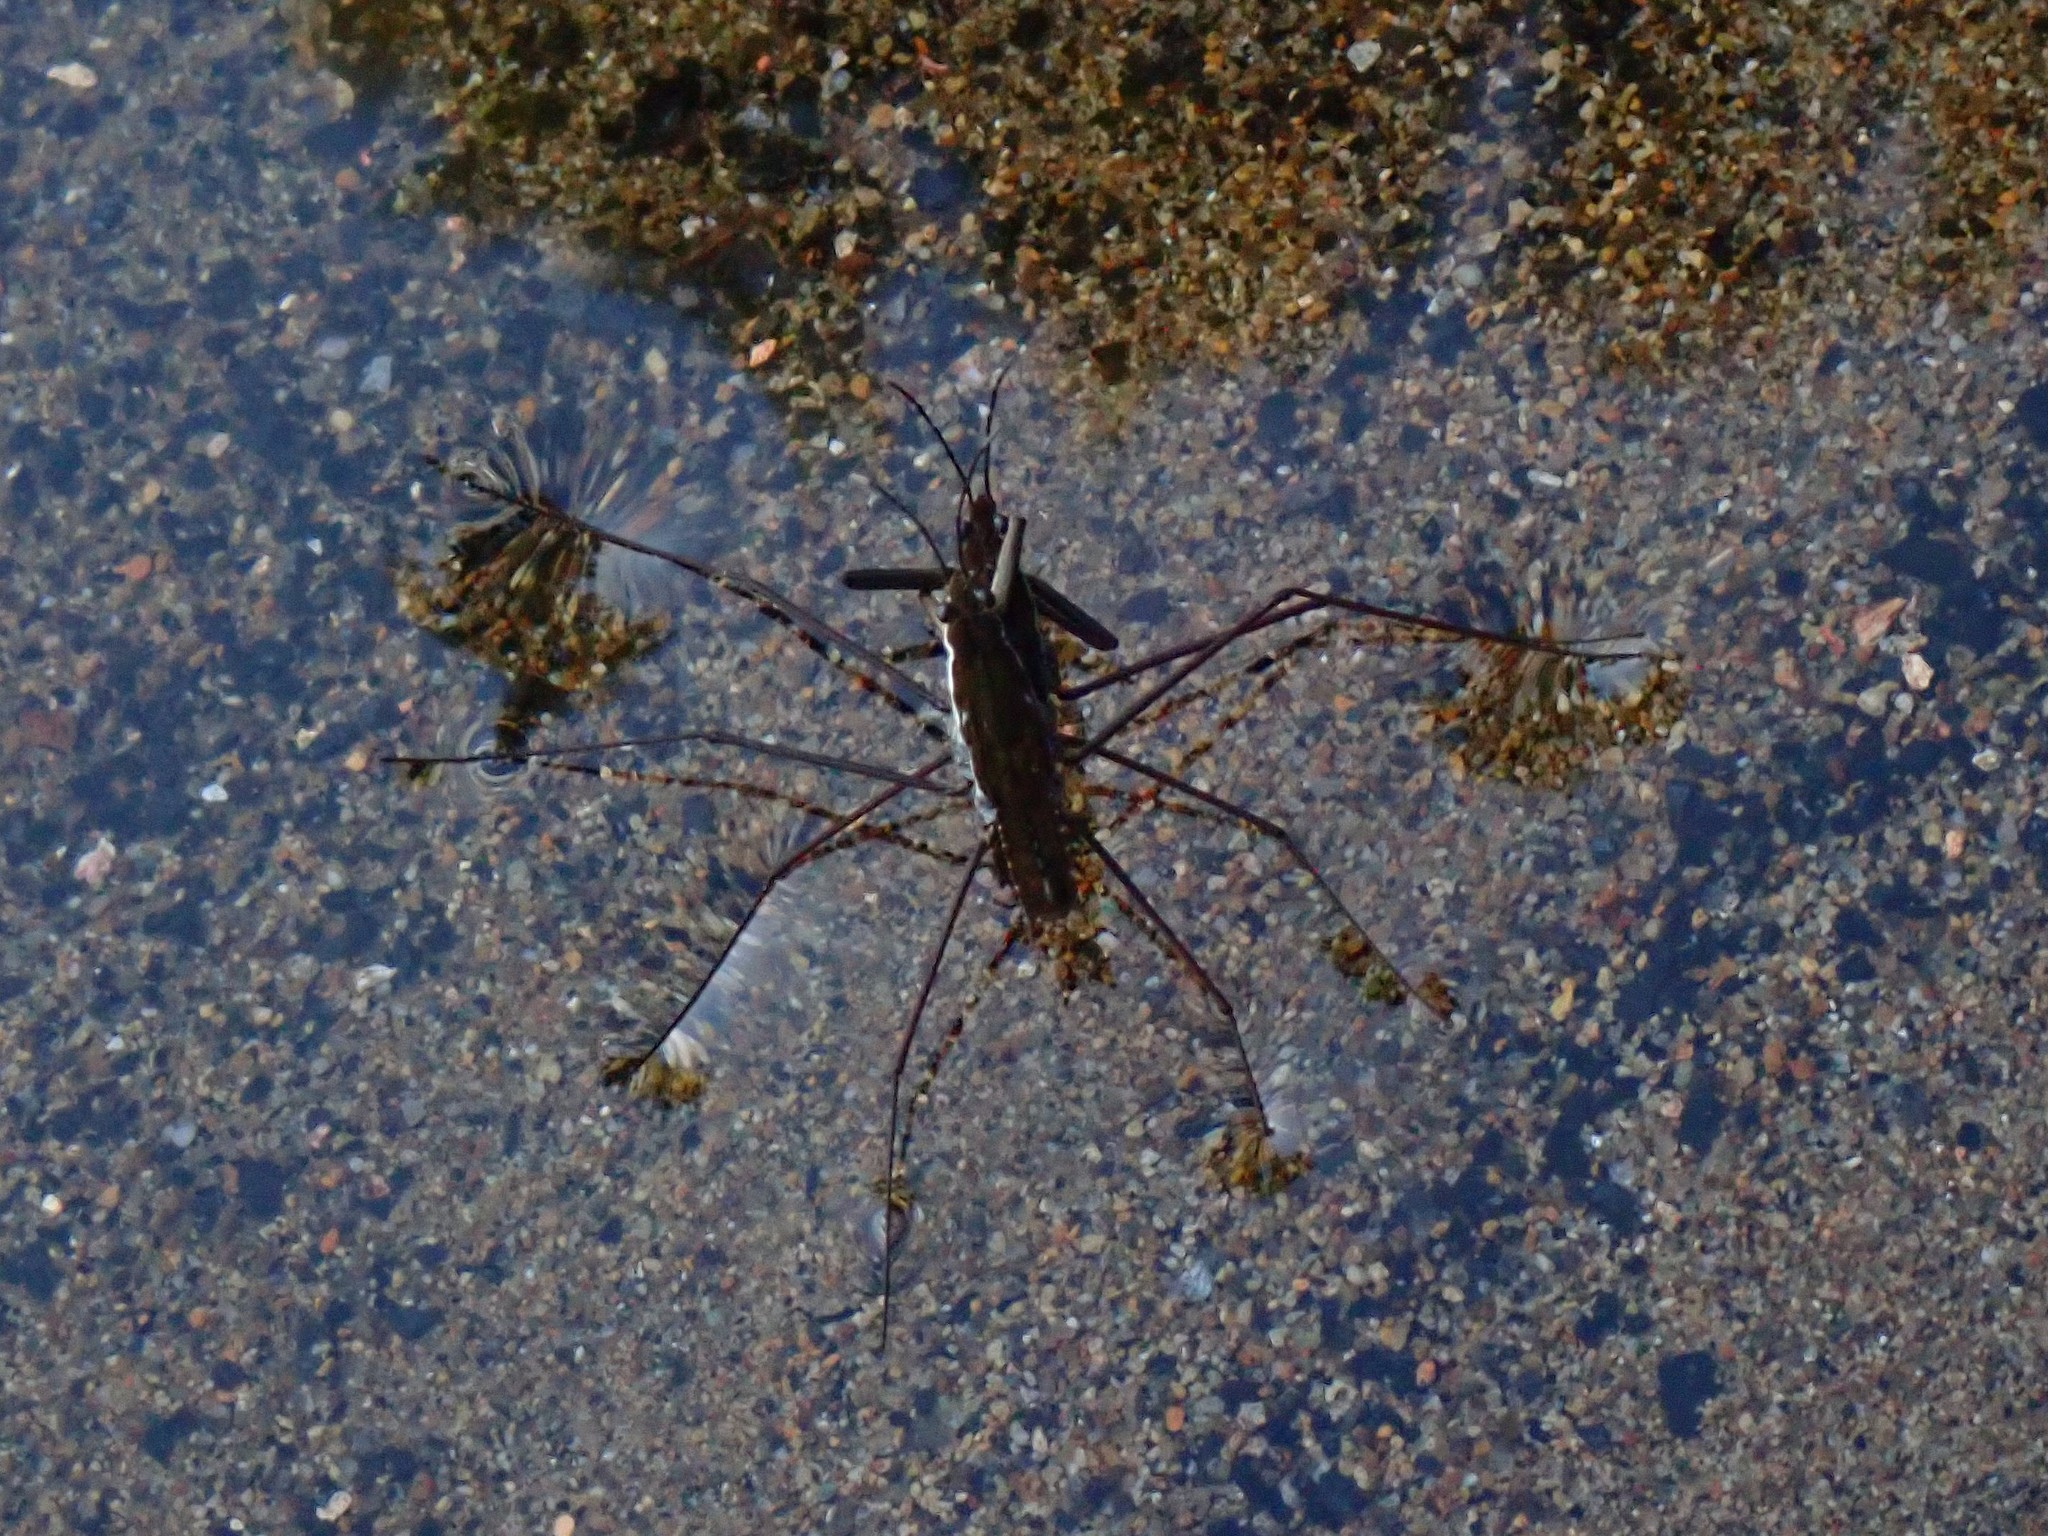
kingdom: Animalia
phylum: Arthropoda
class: Insecta
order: Hemiptera
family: Gerridae
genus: Aquarius
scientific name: Aquarius remigis
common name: Common water strider
